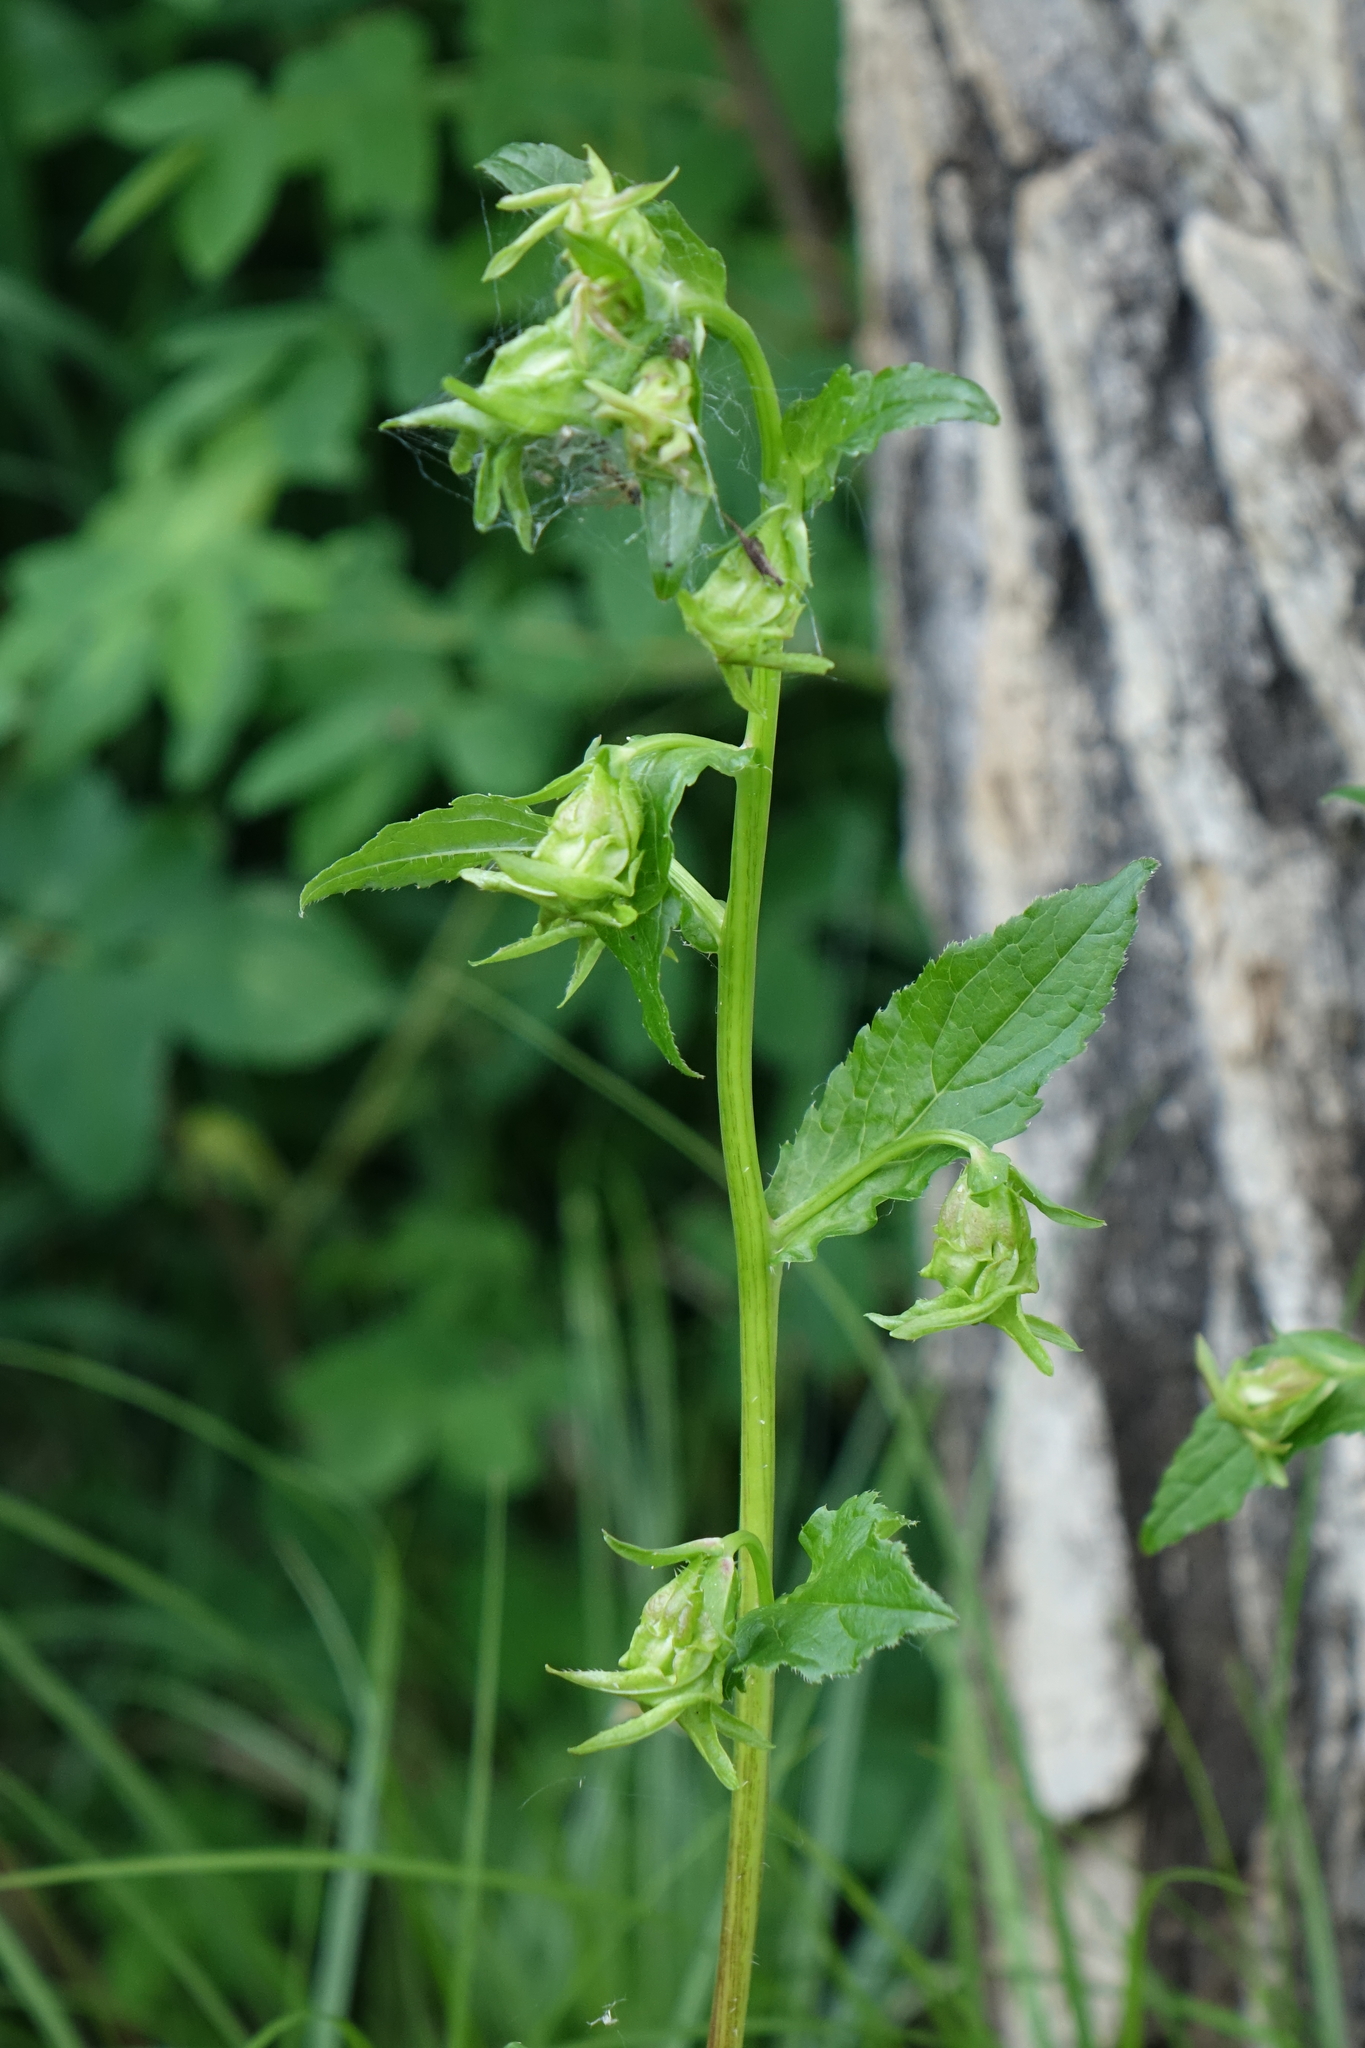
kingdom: Plantae
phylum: Tracheophyta
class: Magnoliopsida
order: Asterales
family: Campanulaceae
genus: Campanula
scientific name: Campanula punctata
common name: Spotted bellflower
